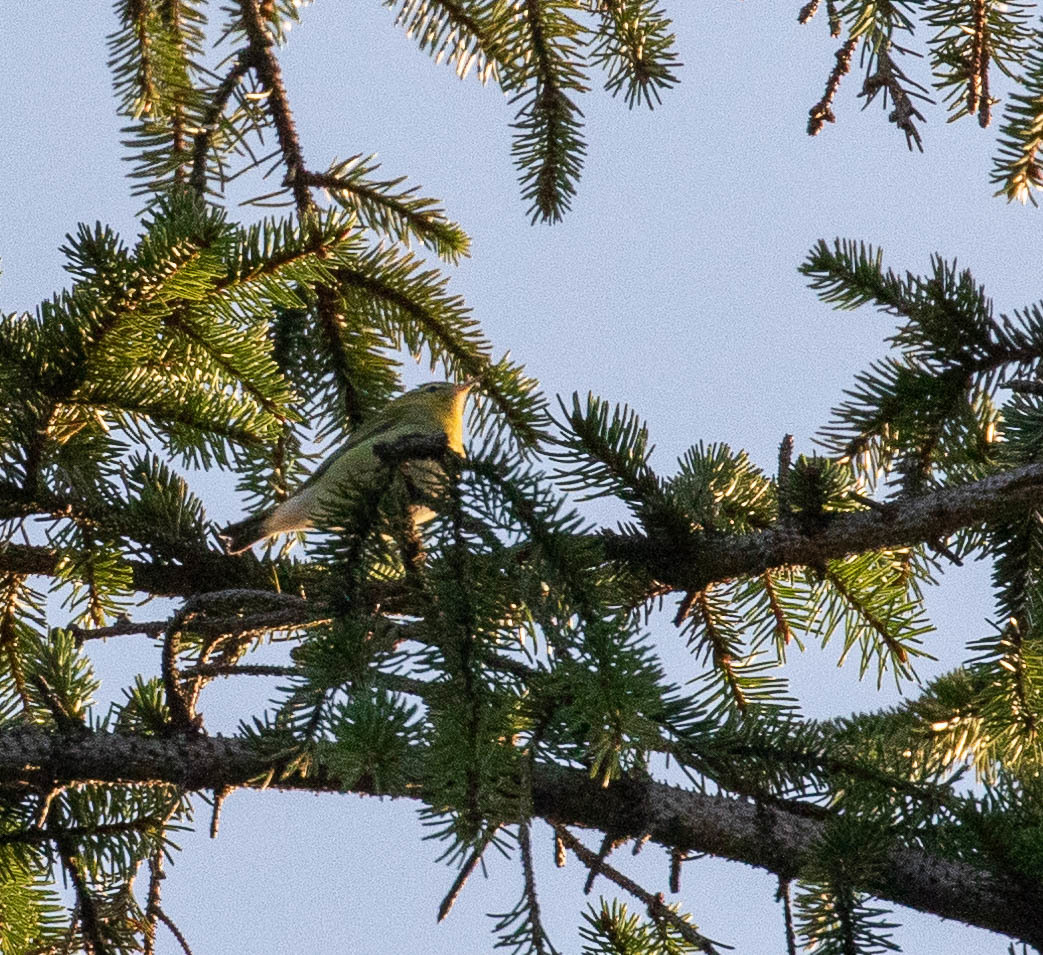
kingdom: Animalia
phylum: Chordata
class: Aves
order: Passeriformes
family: Parulidae
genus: Leiothlypis
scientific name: Leiothlypis peregrina
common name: Tennessee warbler
